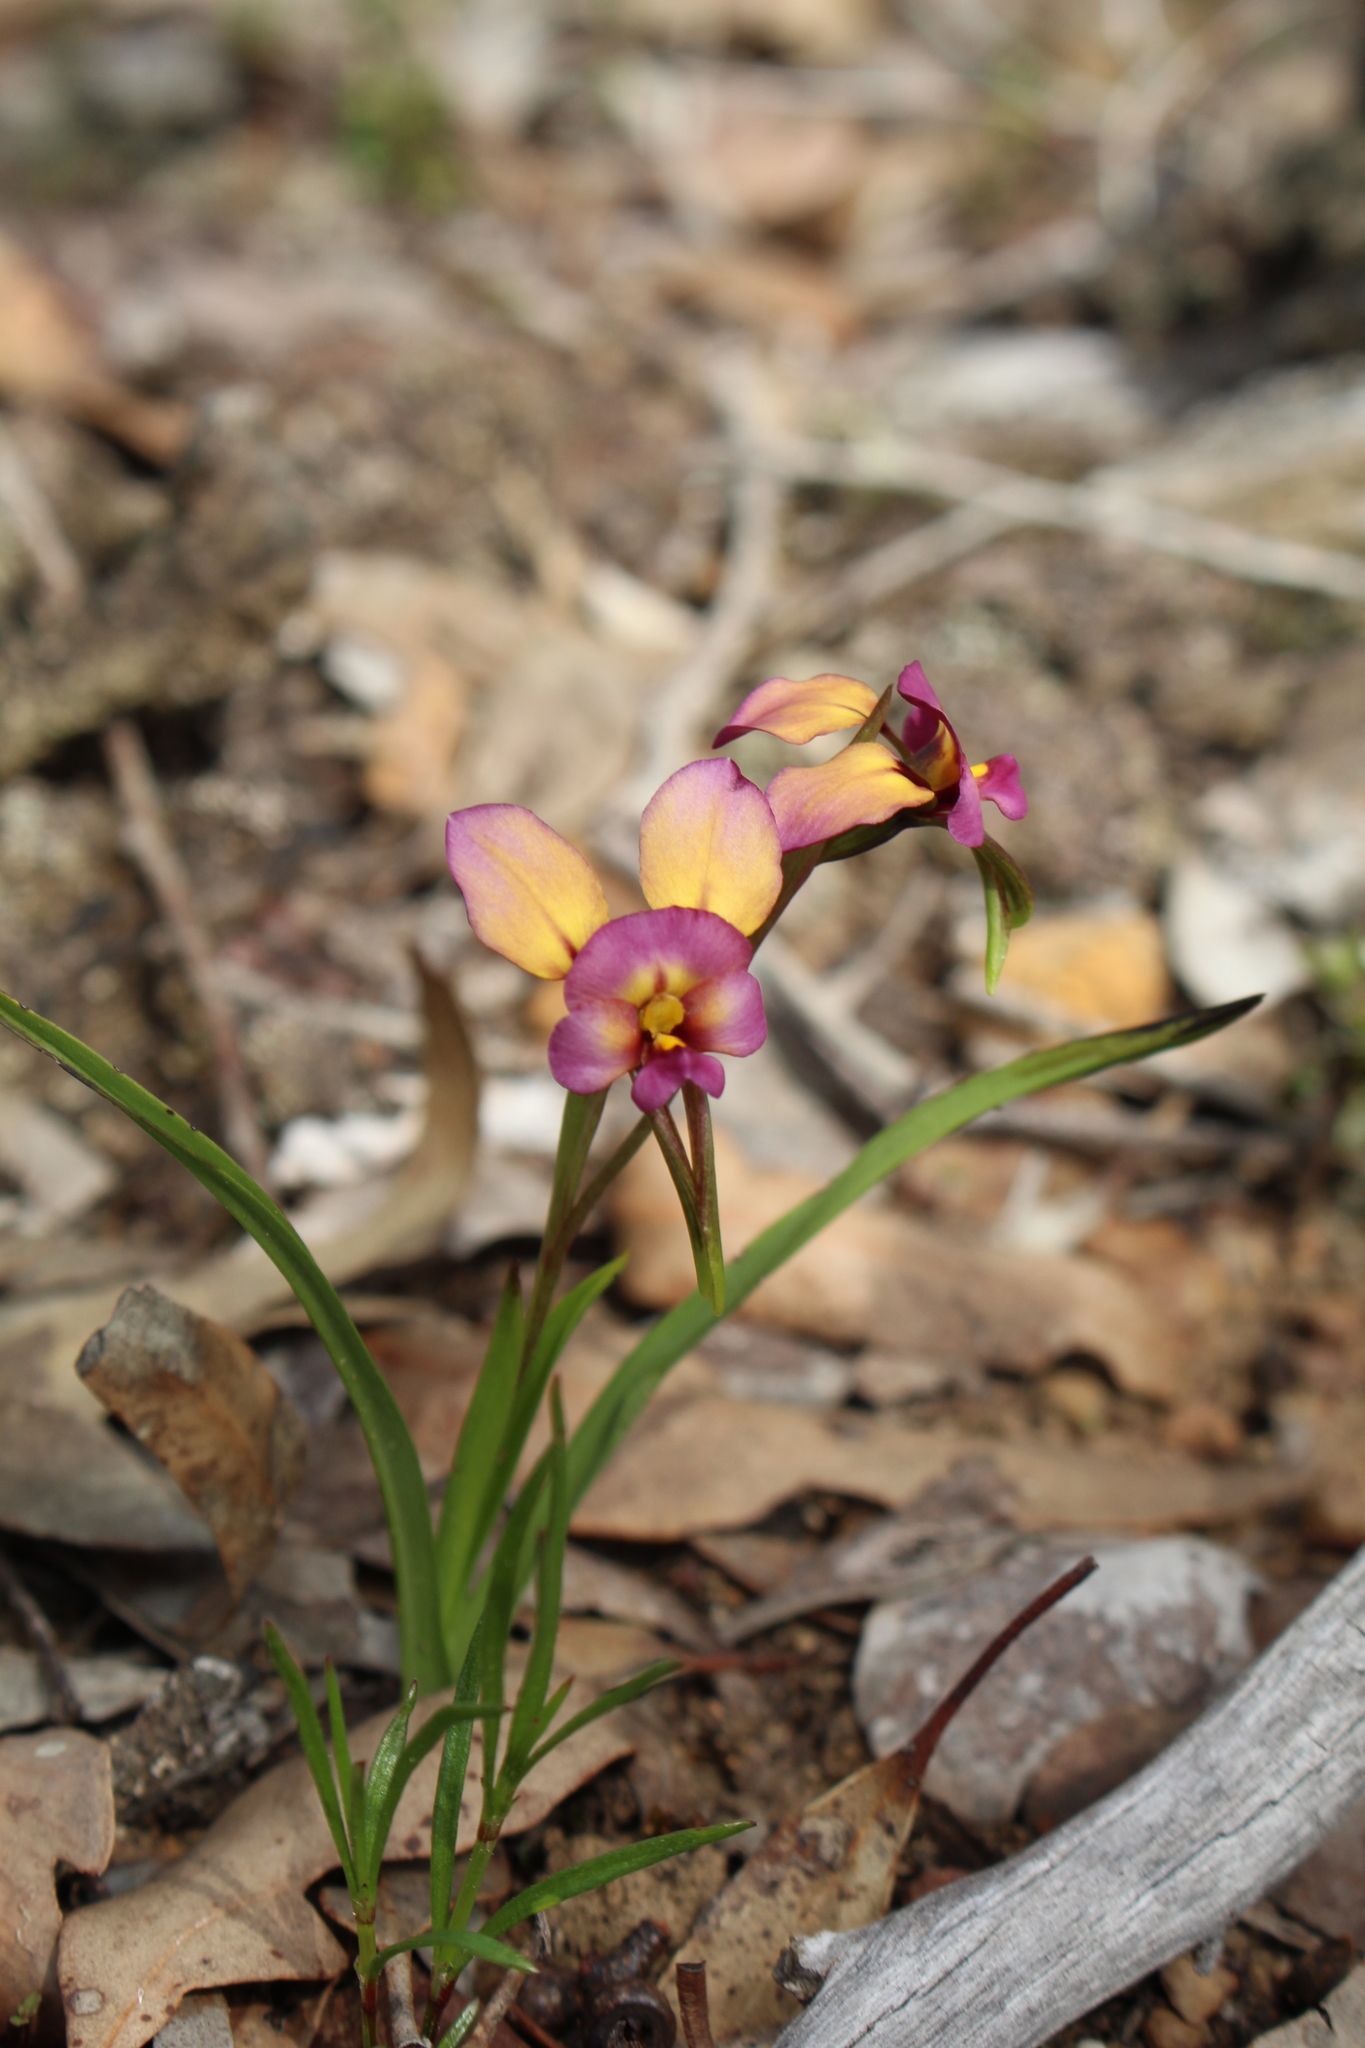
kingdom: Plantae
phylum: Tracheophyta
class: Liliopsida
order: Asparagales
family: Orchidaceae
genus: Diuris
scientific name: Diuris longifolia
